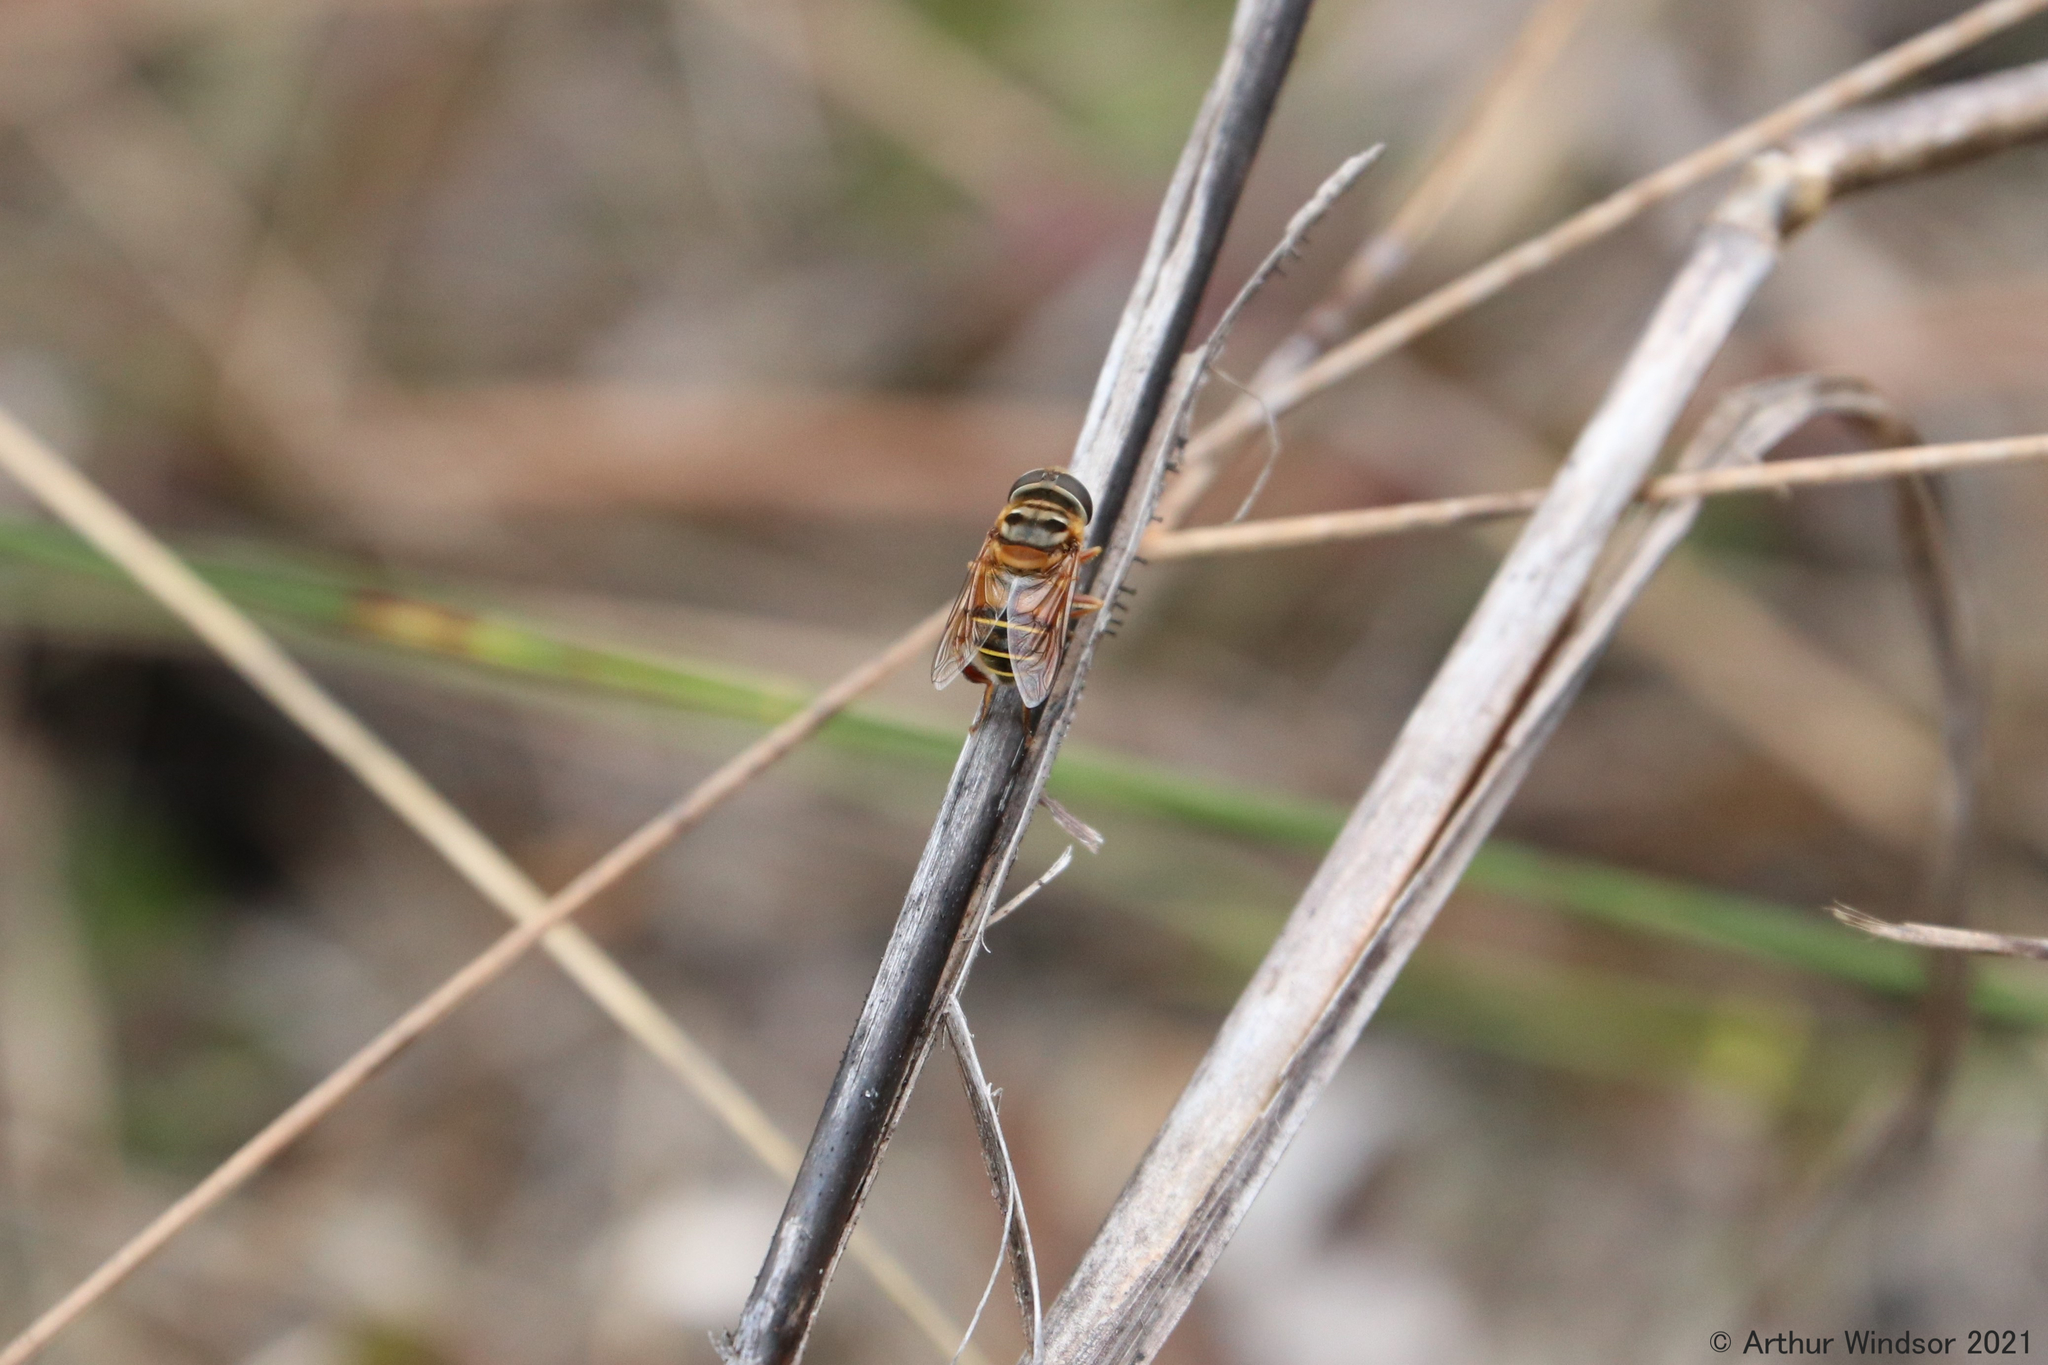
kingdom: Animalia
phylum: Arthropoda
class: Insecta
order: Diptera
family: Syrphidae
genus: Palpada
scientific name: Palpada vinetorum
